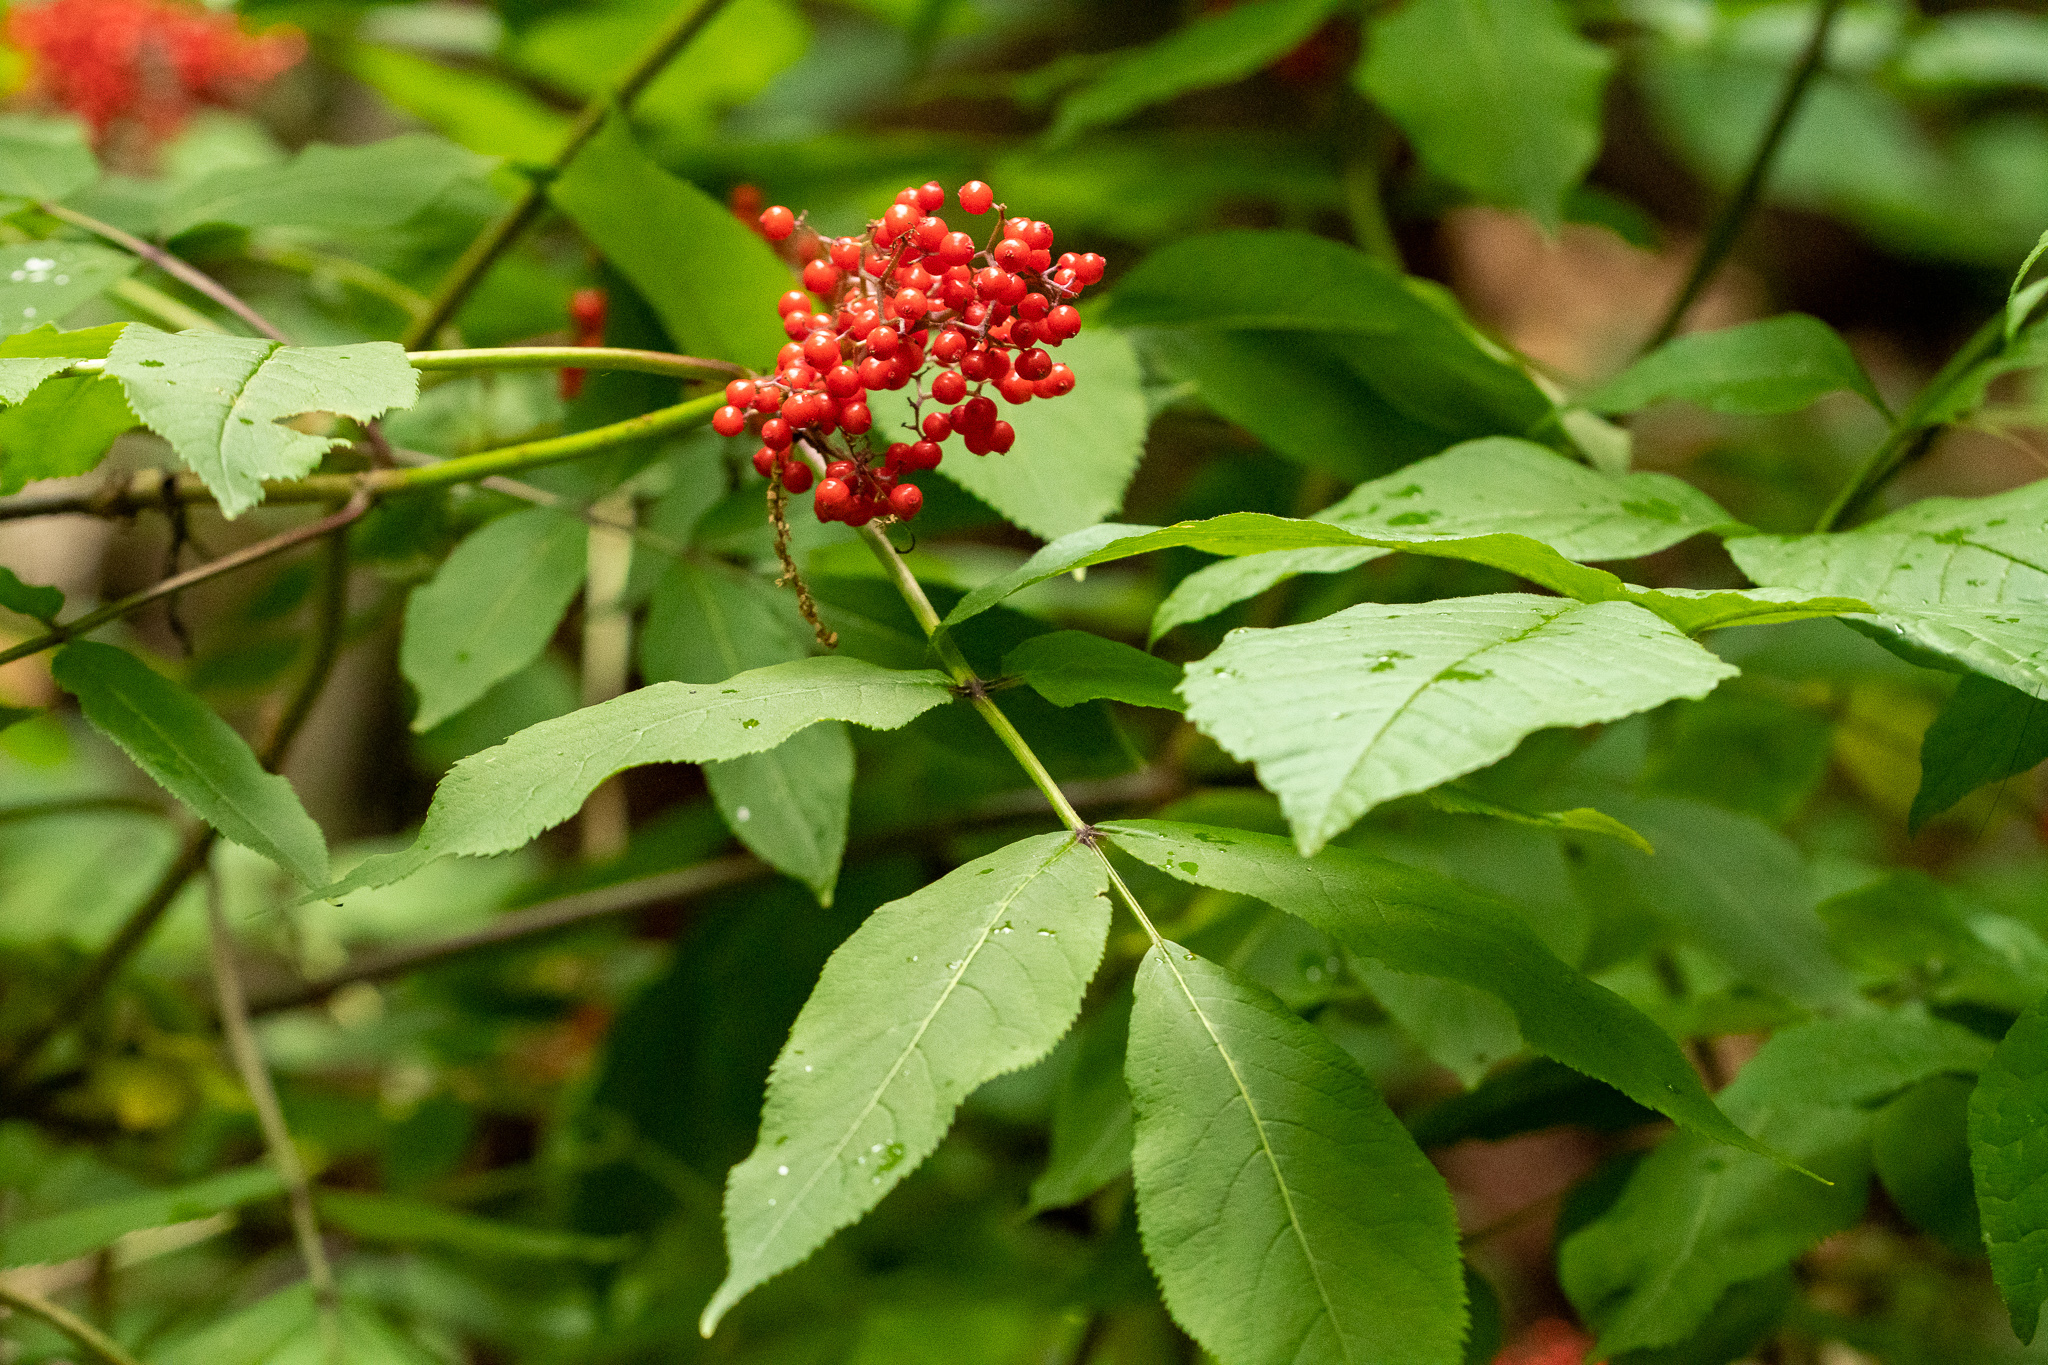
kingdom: Plantae
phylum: Tracheophyta
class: Magnoliopsida
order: Dipsacales
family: Viburnaceae
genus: Sambucus
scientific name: Sambucus racemosa
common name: Red-berried elder
